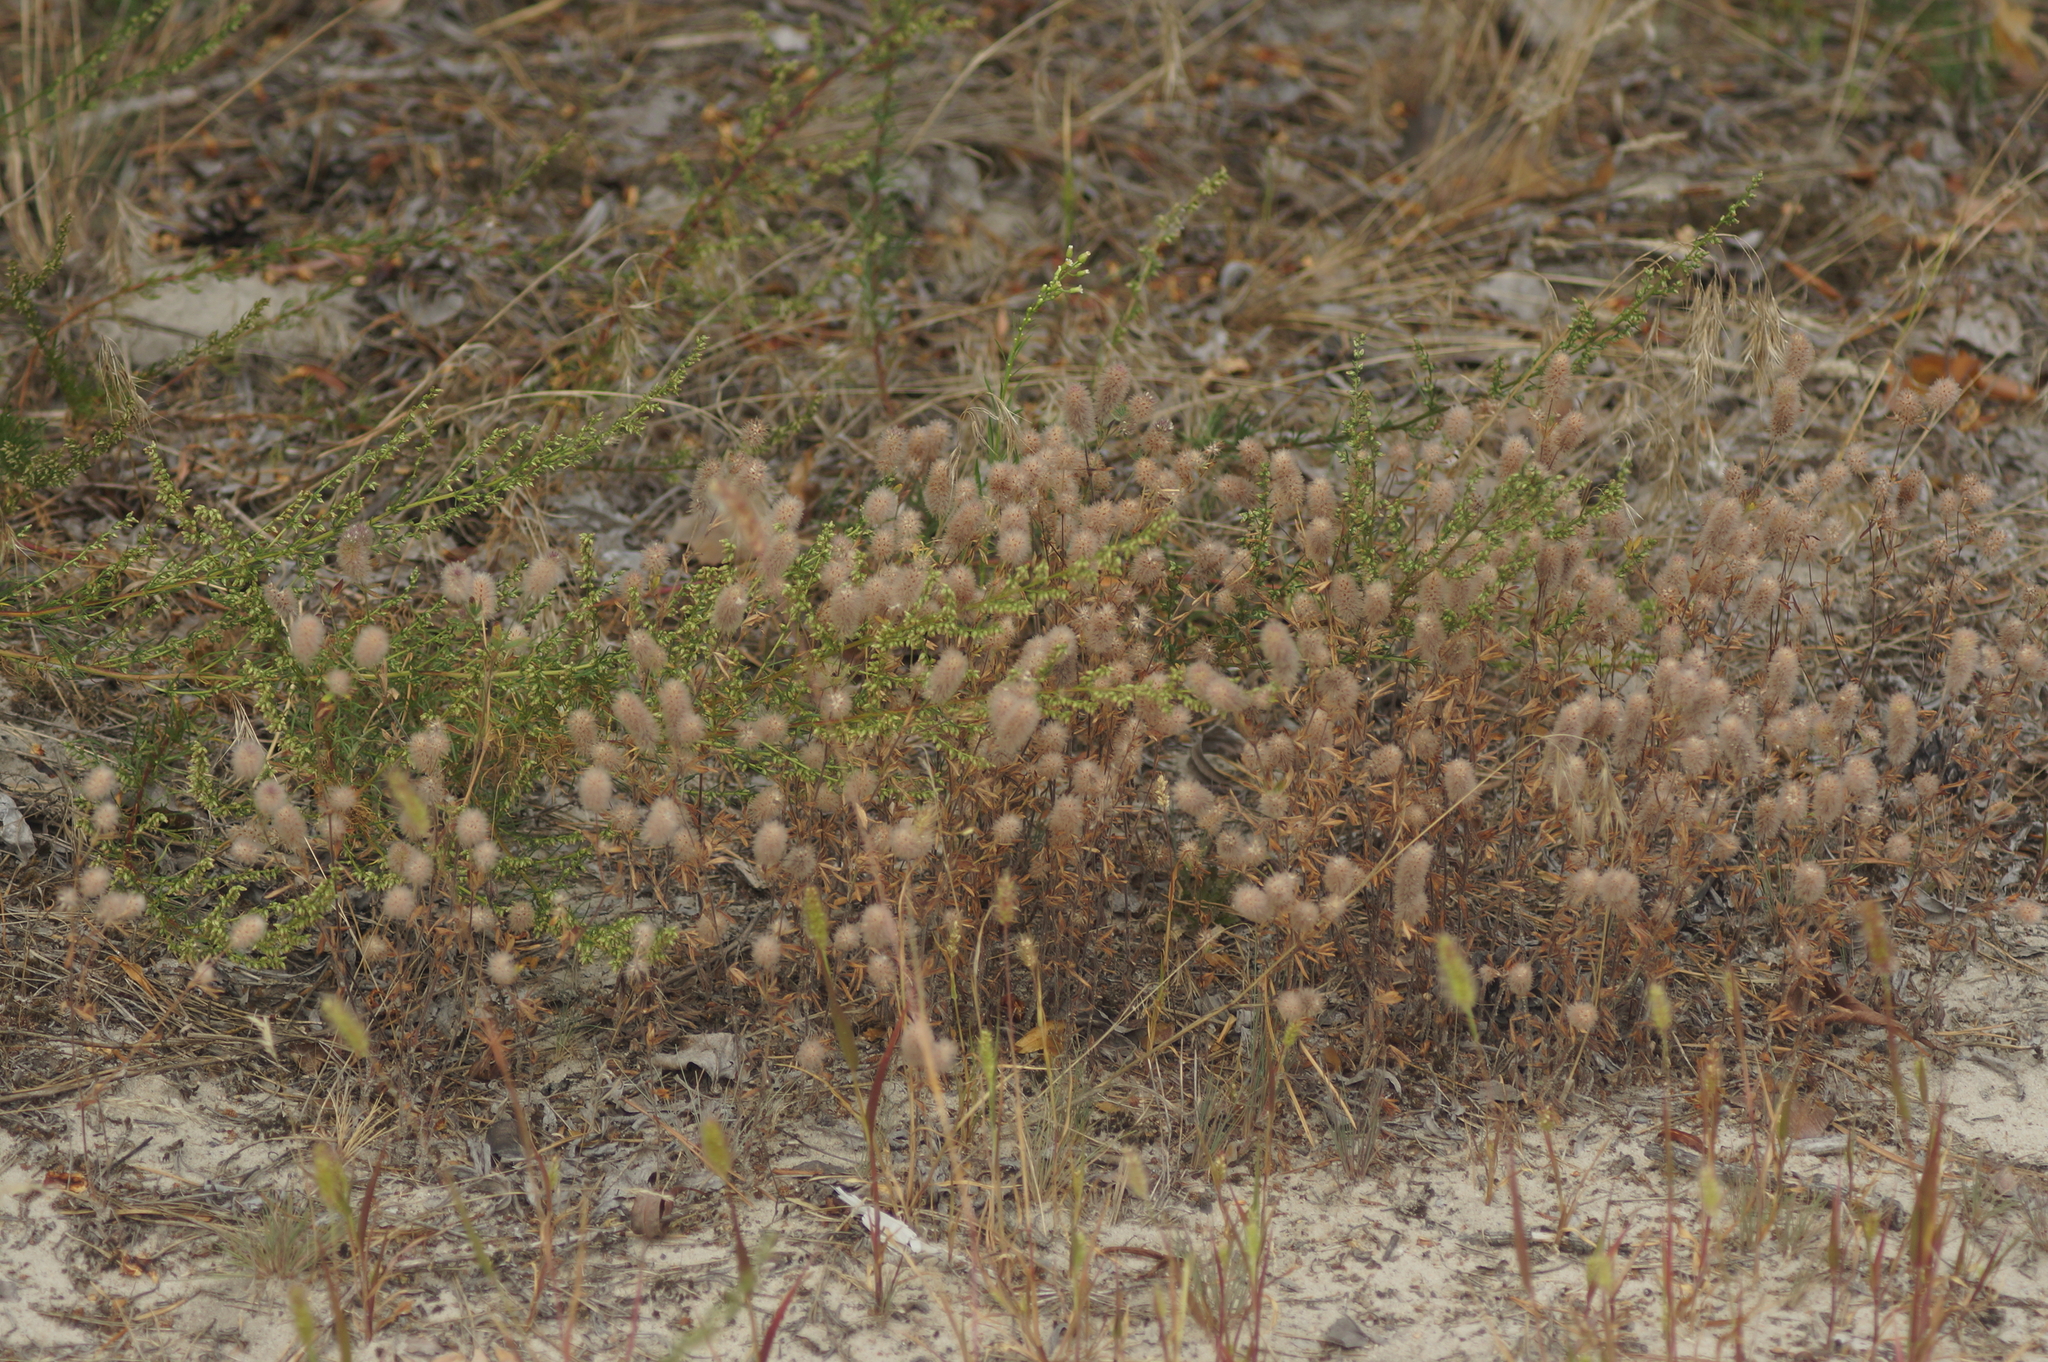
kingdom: Plantae
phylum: Tracheophyta
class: Magnoliopsida
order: Fabales
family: Fabaceae
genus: Trifolium
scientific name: Trifolium arvense
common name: Hare's-foot clover
